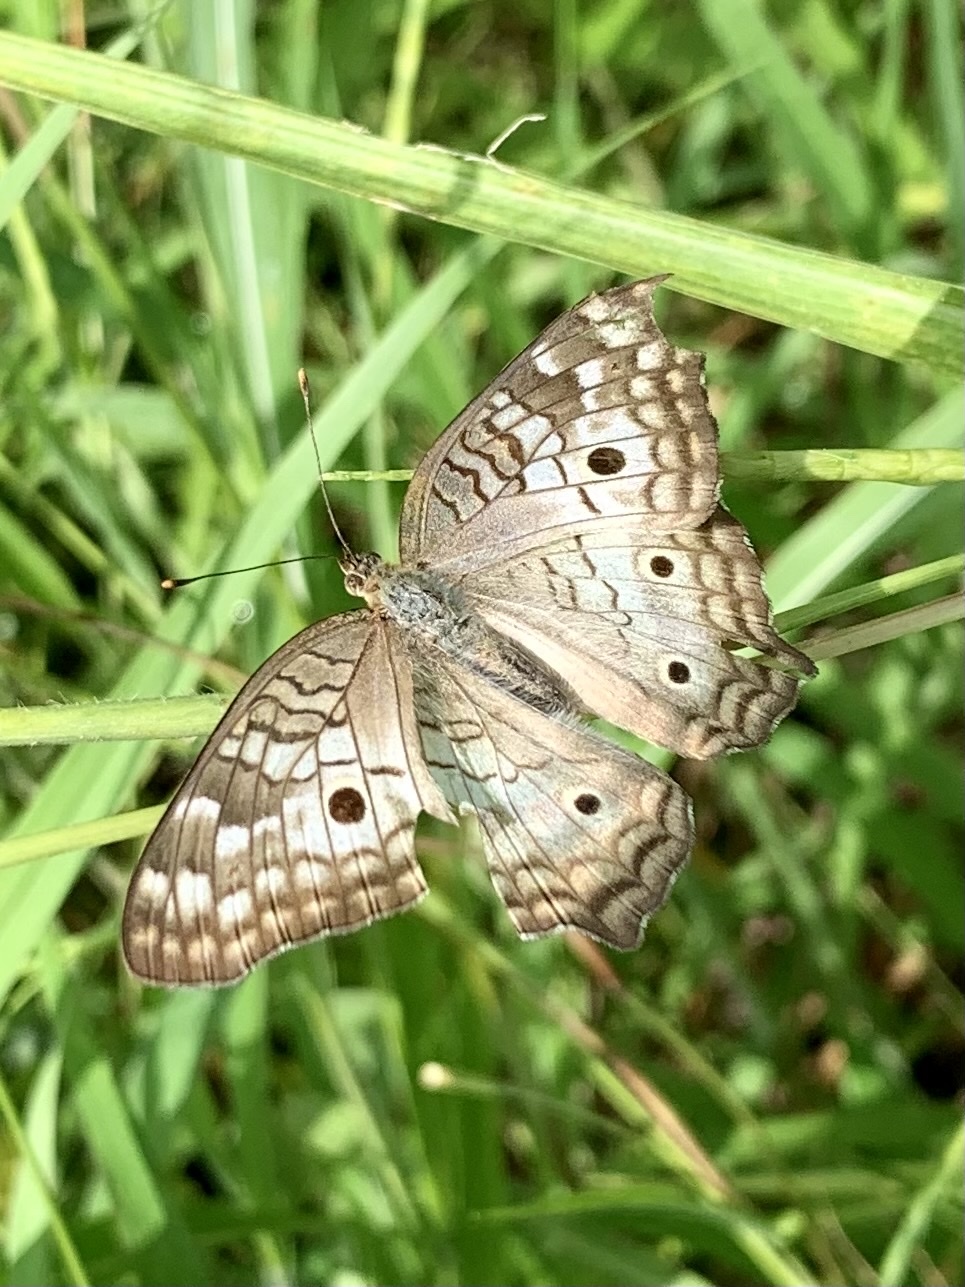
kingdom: Animalia
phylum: Arthropoda
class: Insecta
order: Lepidoptera
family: Nymphalidae
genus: Anartia
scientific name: Anartia jatrophae
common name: White peacock
